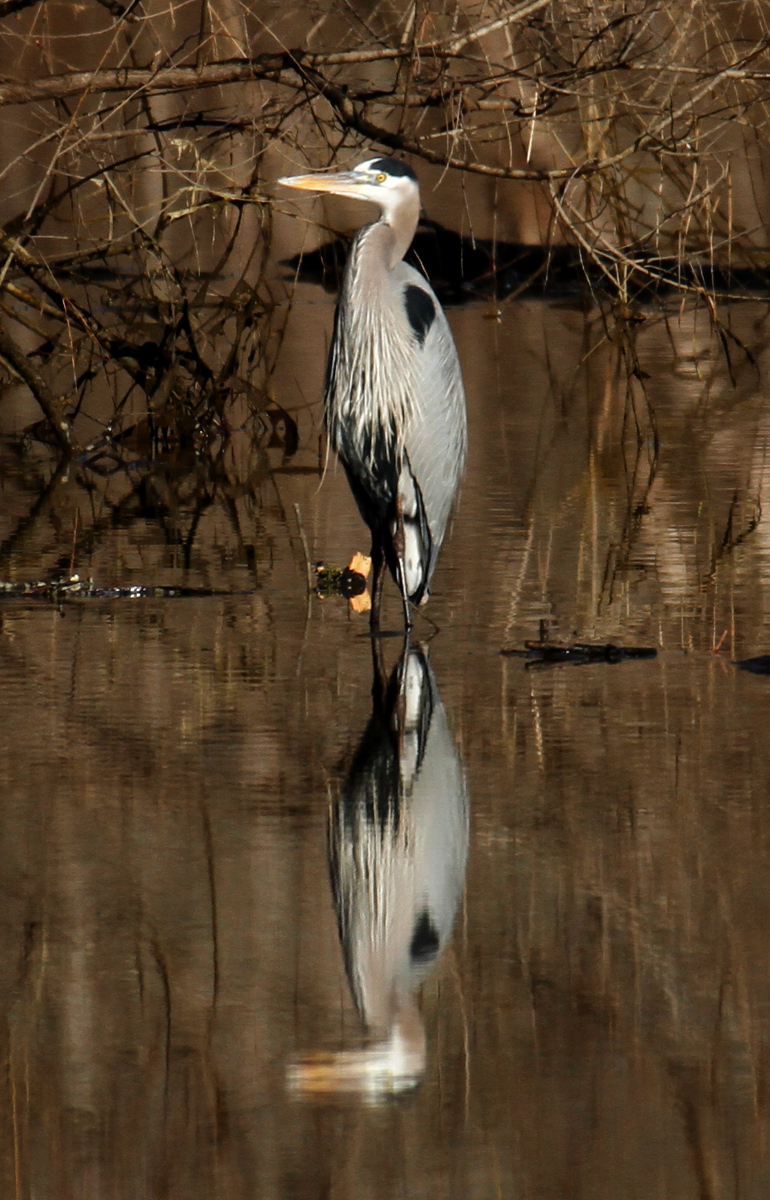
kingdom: Animalia
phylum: Chordata
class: Aves
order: Pelecaniformes
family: Ardeidae
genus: Ardea
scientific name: Ardea herodias
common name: Great blue heron
